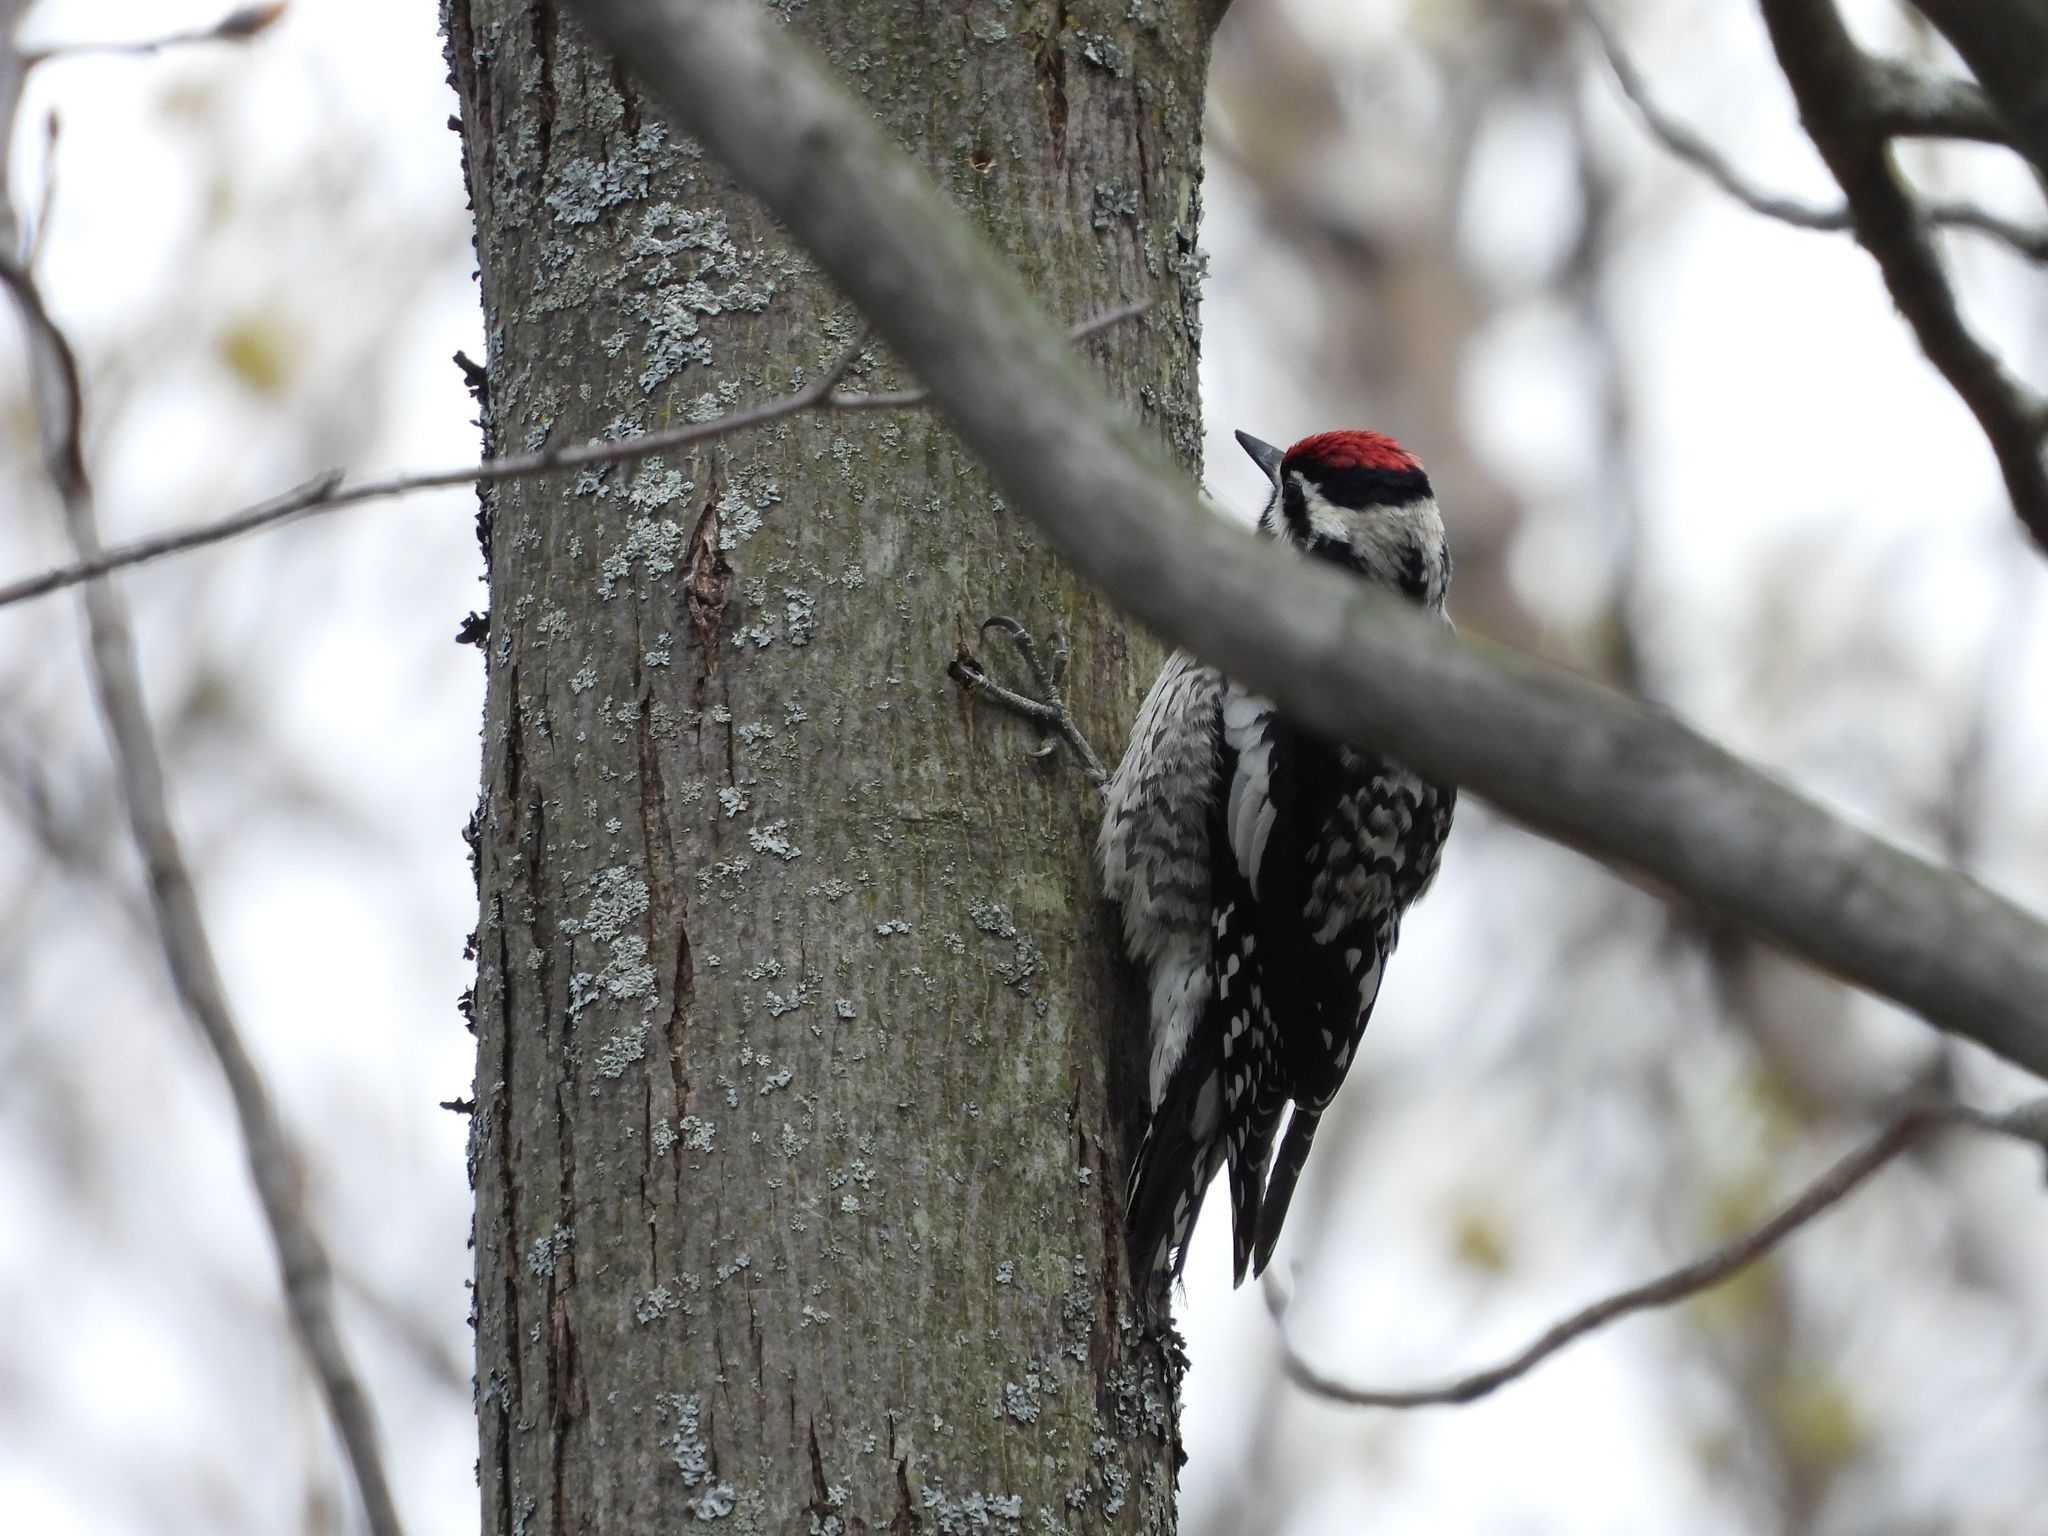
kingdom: Animalia
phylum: Chordata
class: Aves
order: Piciformes
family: Picidae
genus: Sphyrapicus
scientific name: Sphyrapicus varius
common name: Yellow-bellied sapsucker
